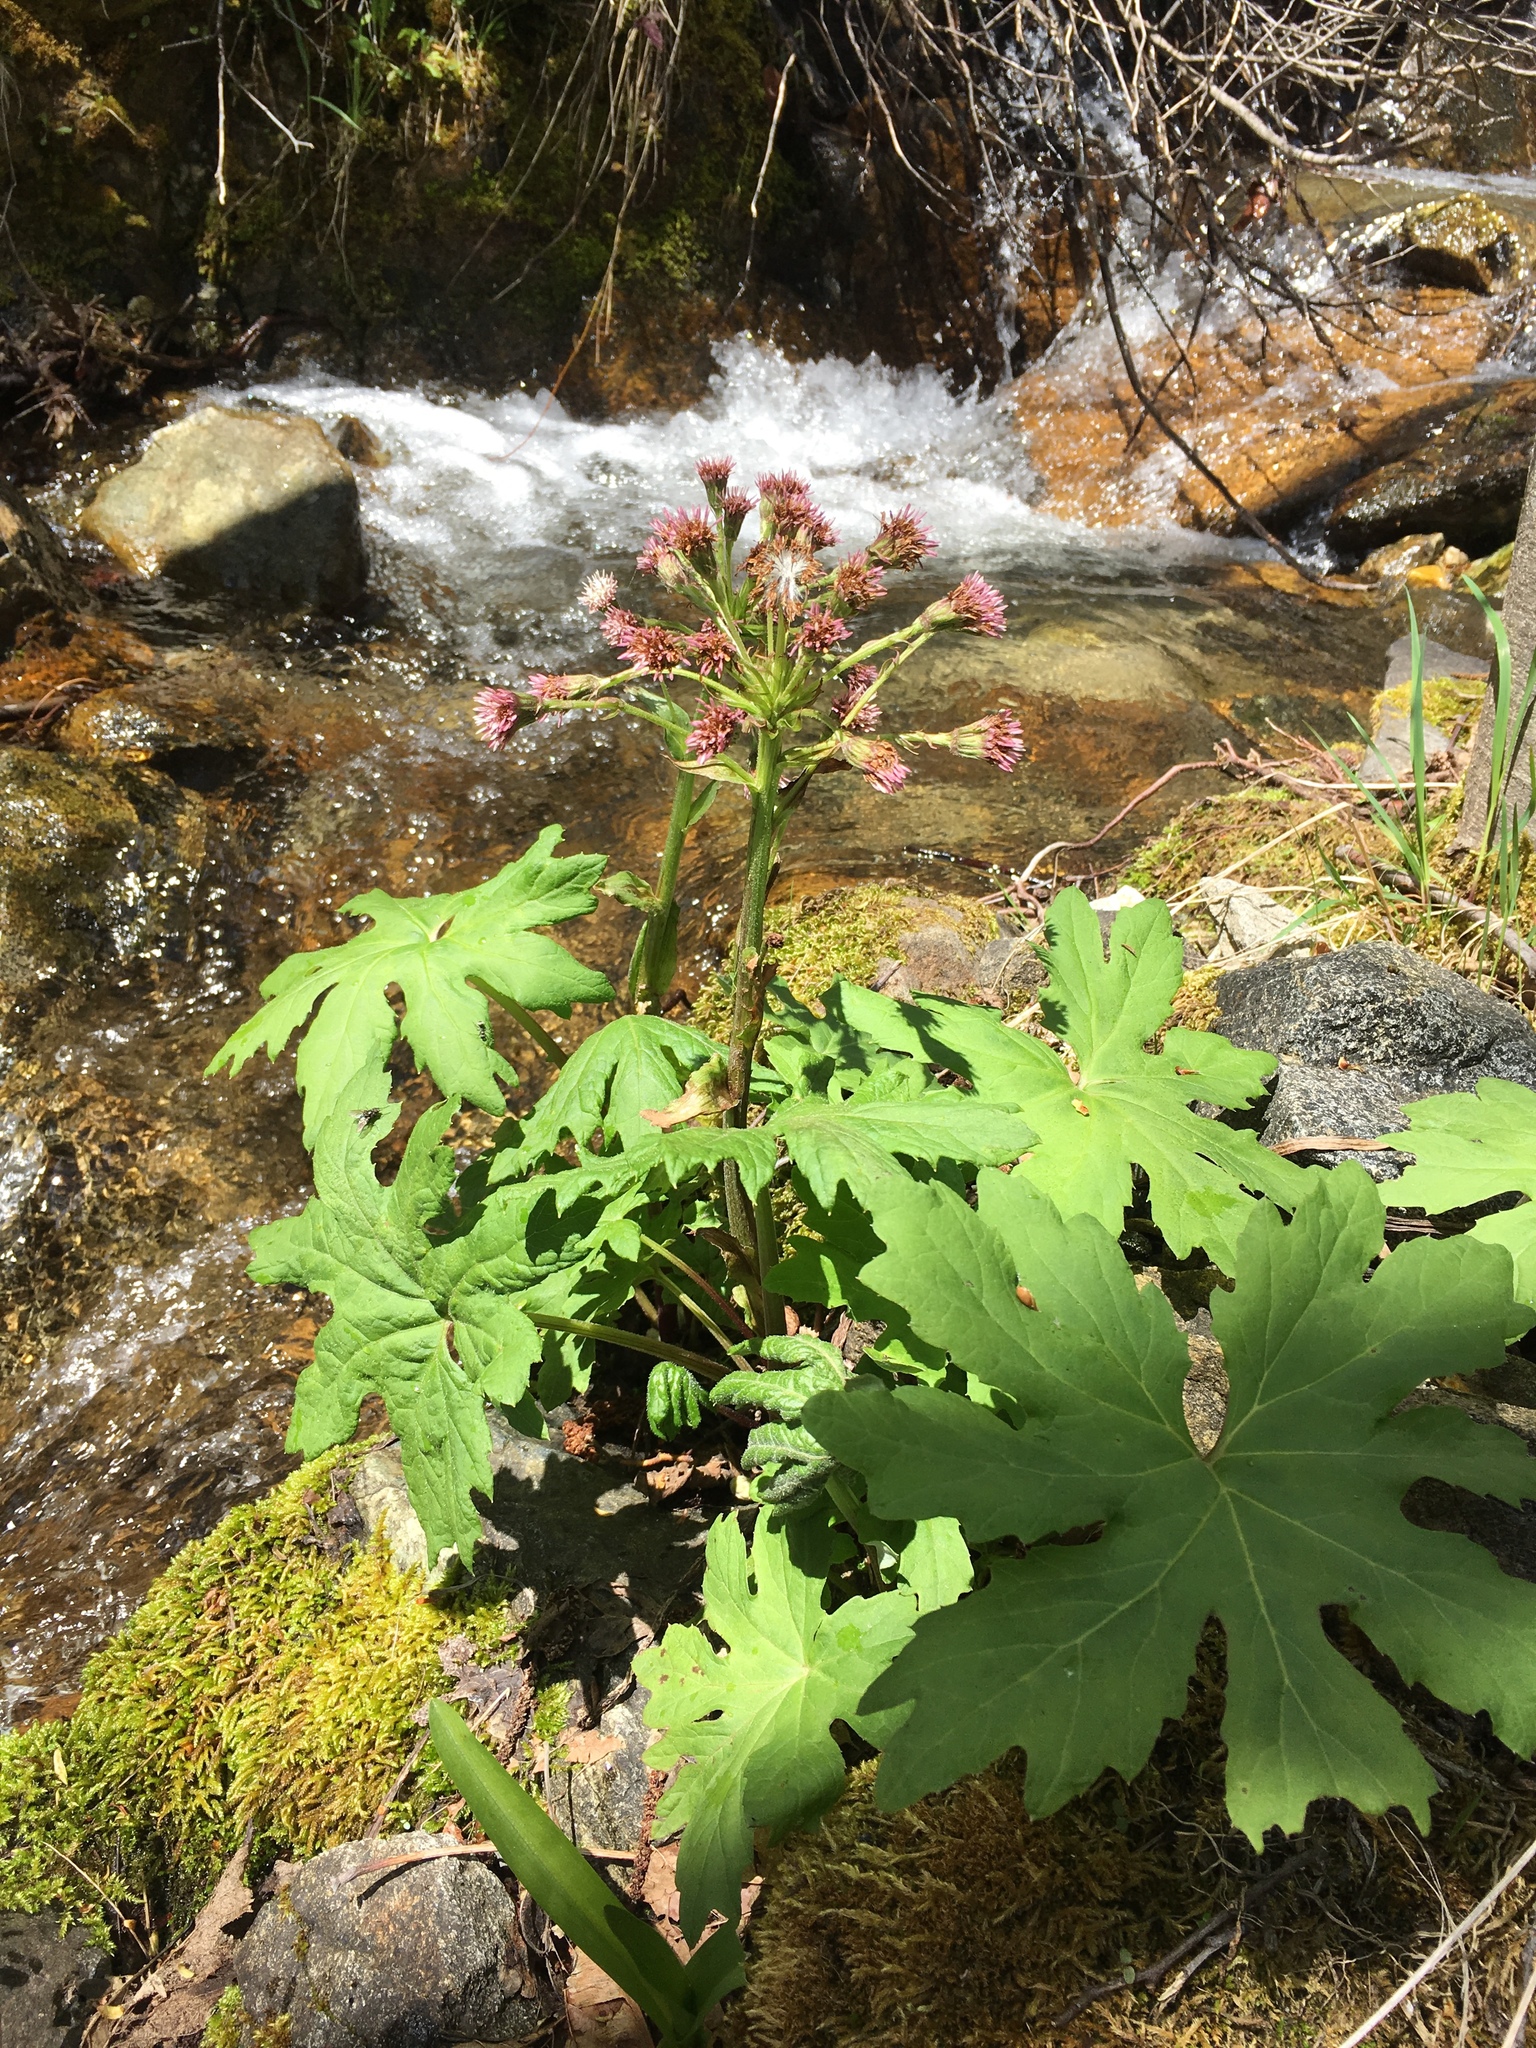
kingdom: Plantae
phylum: Tracheophyta
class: Magnoliopsida
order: Asterales
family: Asteraceae
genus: Petasites
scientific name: Petasites frigidus
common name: Arctic butterbur
